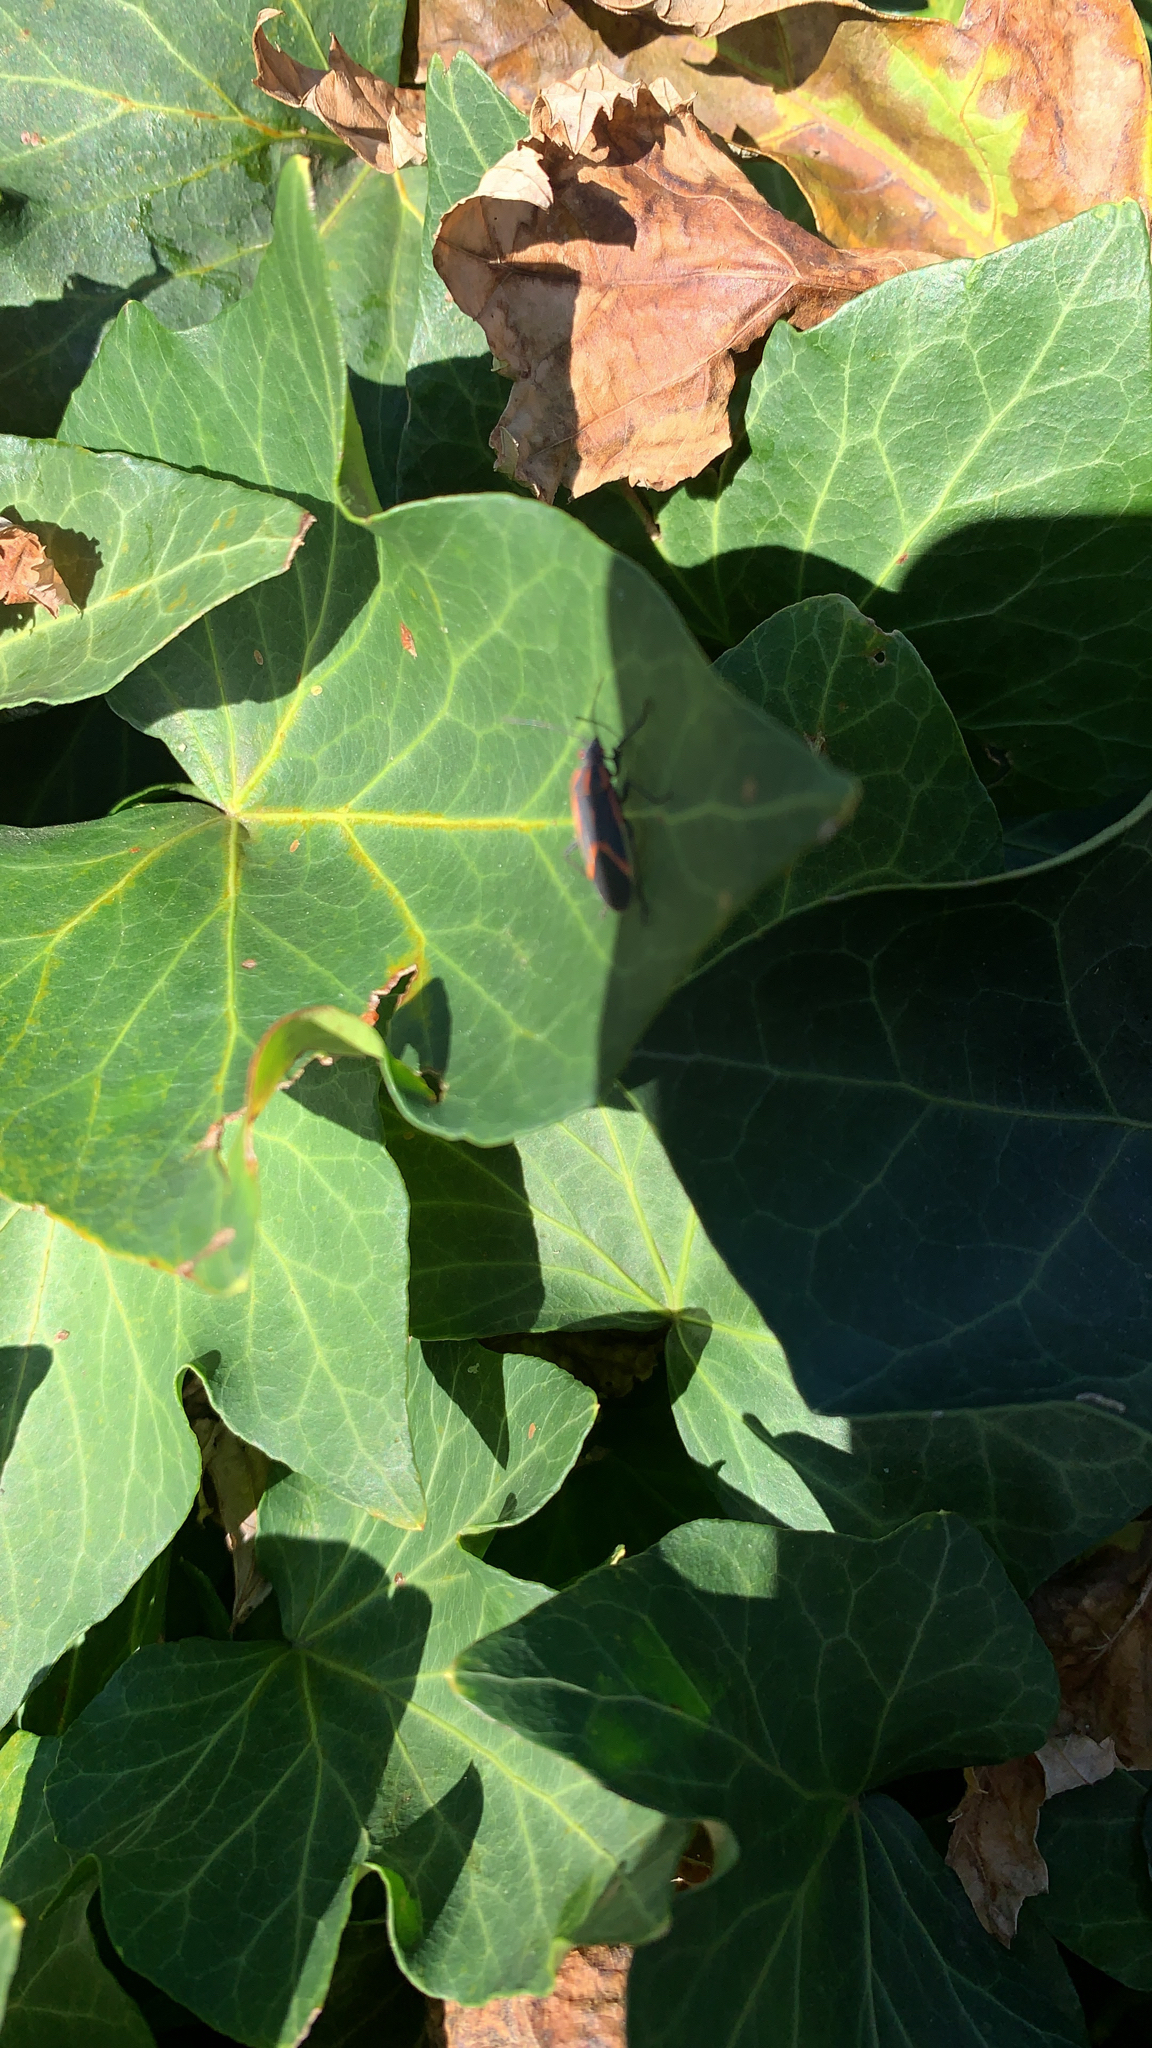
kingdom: Animalia
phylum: Arthropoda
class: Insecta
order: Hemiptera
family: Rhopalidae
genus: Boisea
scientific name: Boisea trivittata
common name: Boxelder bug
